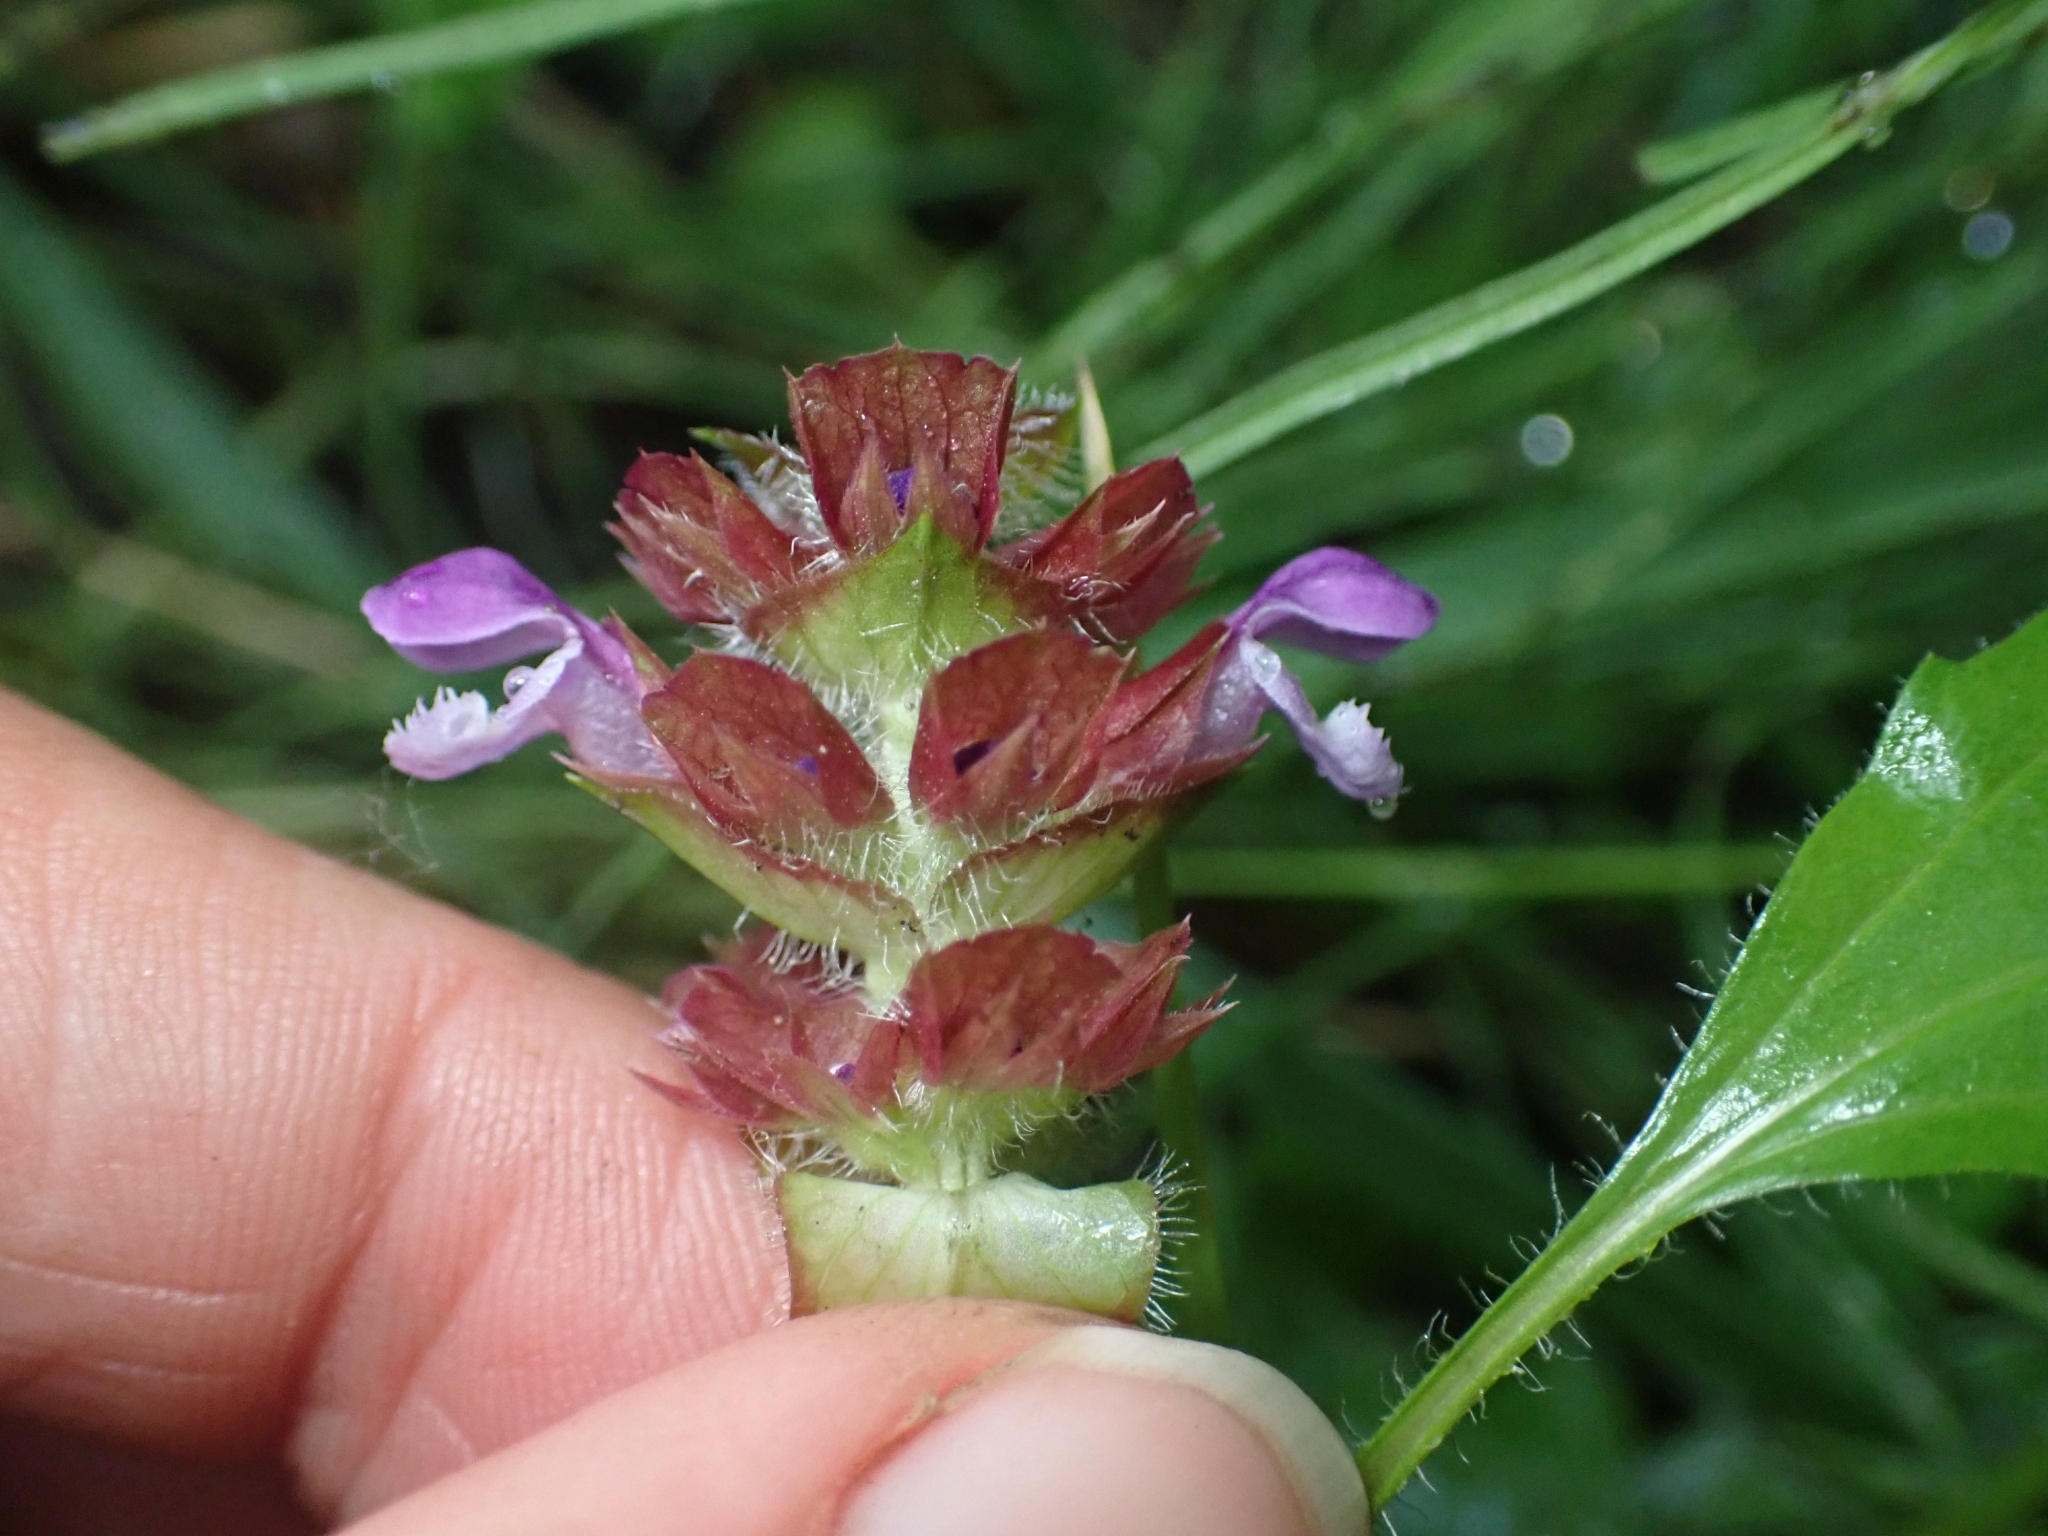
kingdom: Plantae
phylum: Tracheophyta
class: Magnoliopsida
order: Lamiales
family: Lamiaceae
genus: Prunella
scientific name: Prunella vulgaris
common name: Heal-all
